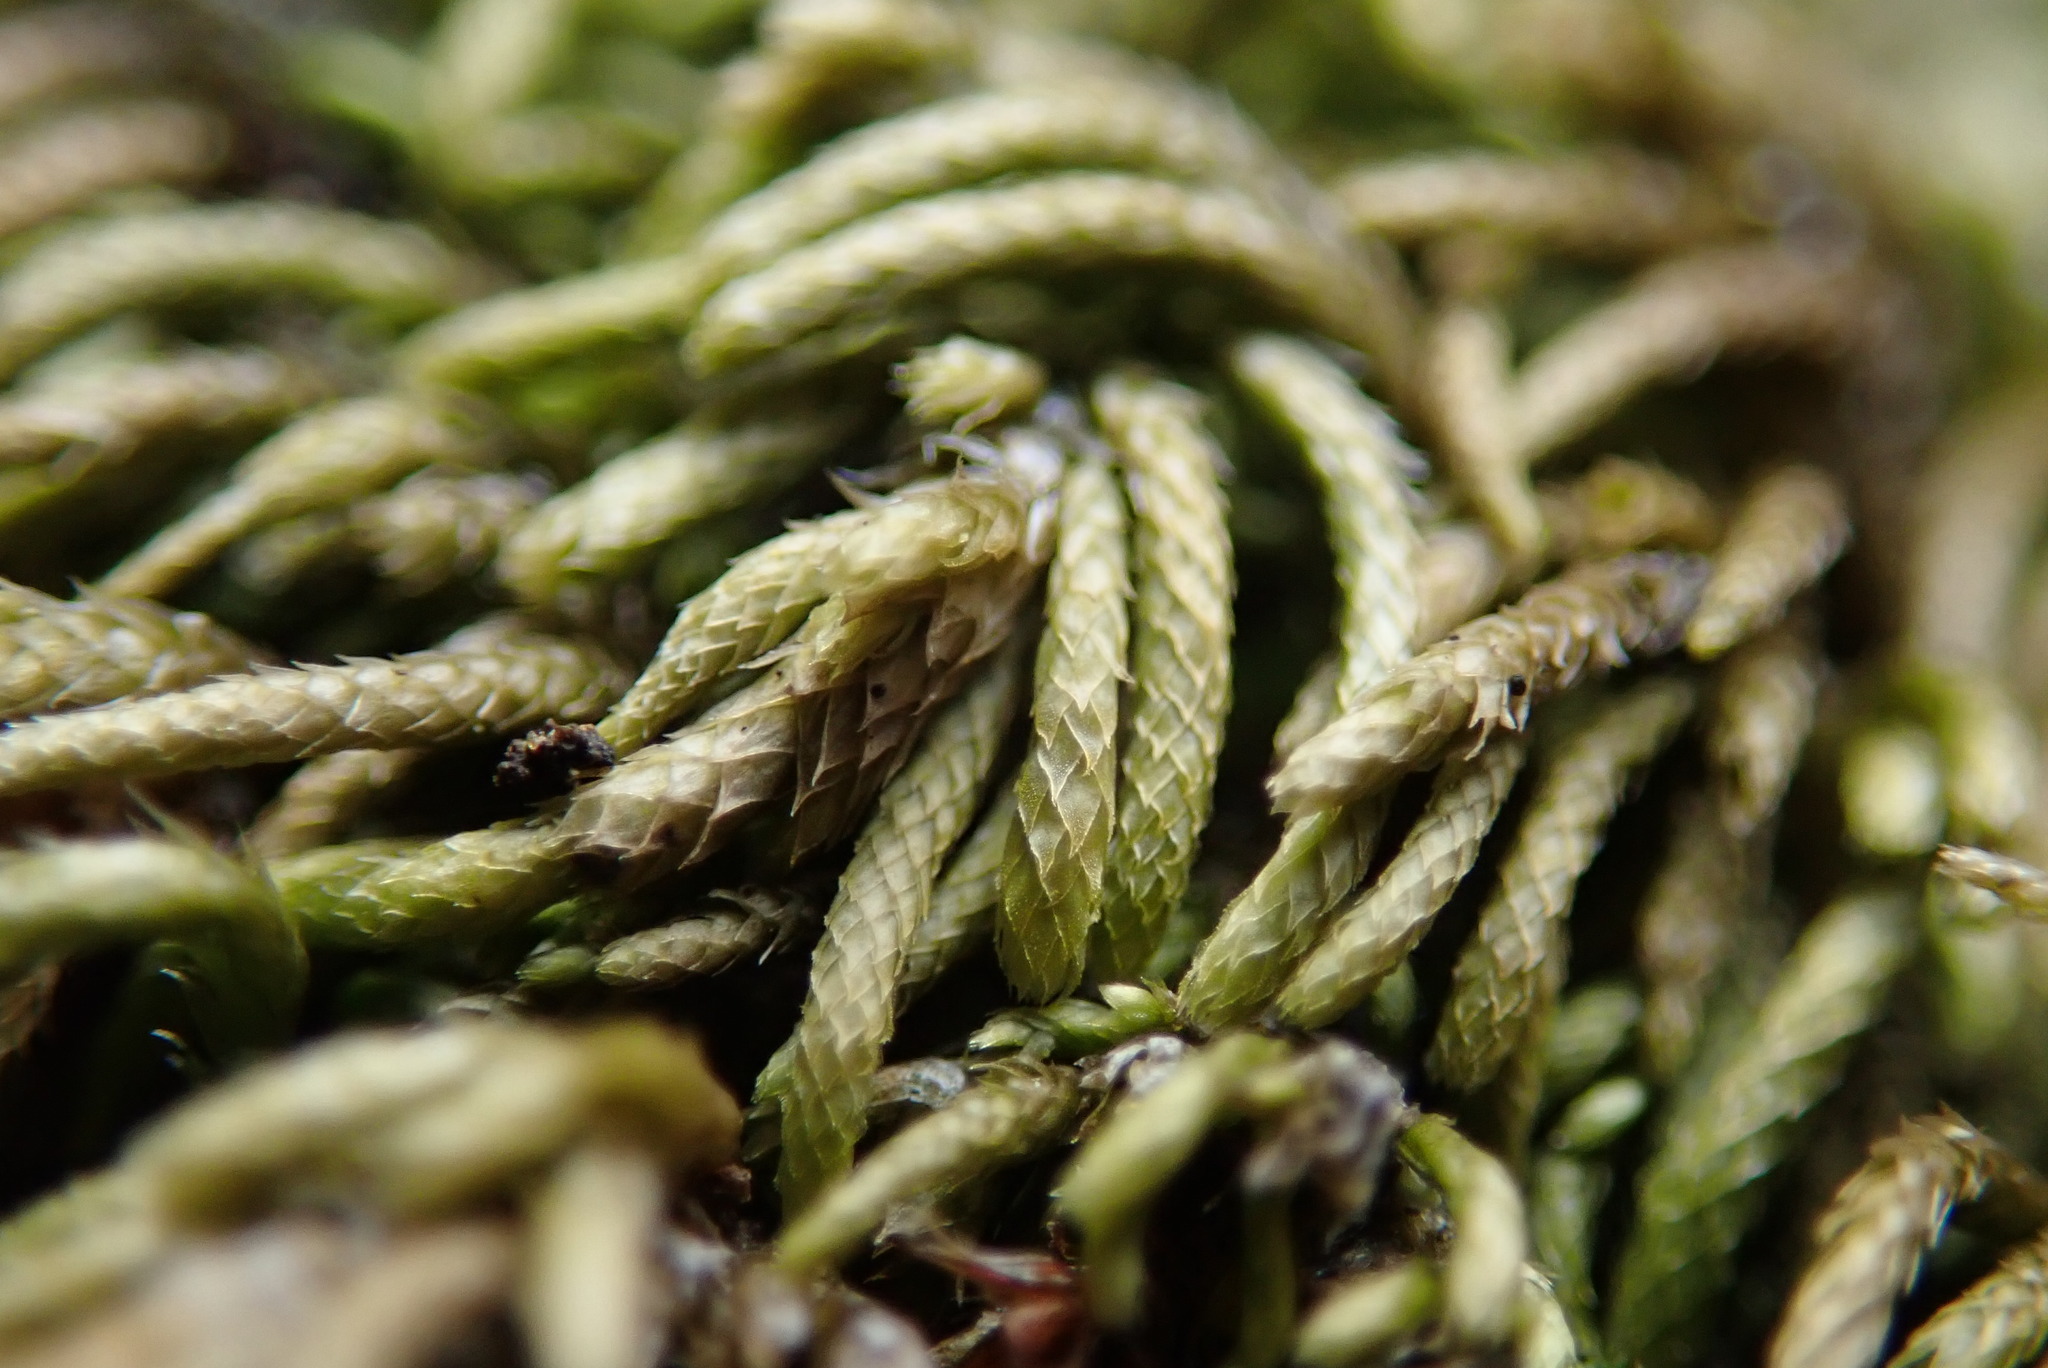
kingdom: Plantae
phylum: Bryophyta
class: Bryopsida
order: Hypnales
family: Lembophyllaceae
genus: Nogopterium
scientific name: Nogopterium gracile
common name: Bird's-foot wing-moss
